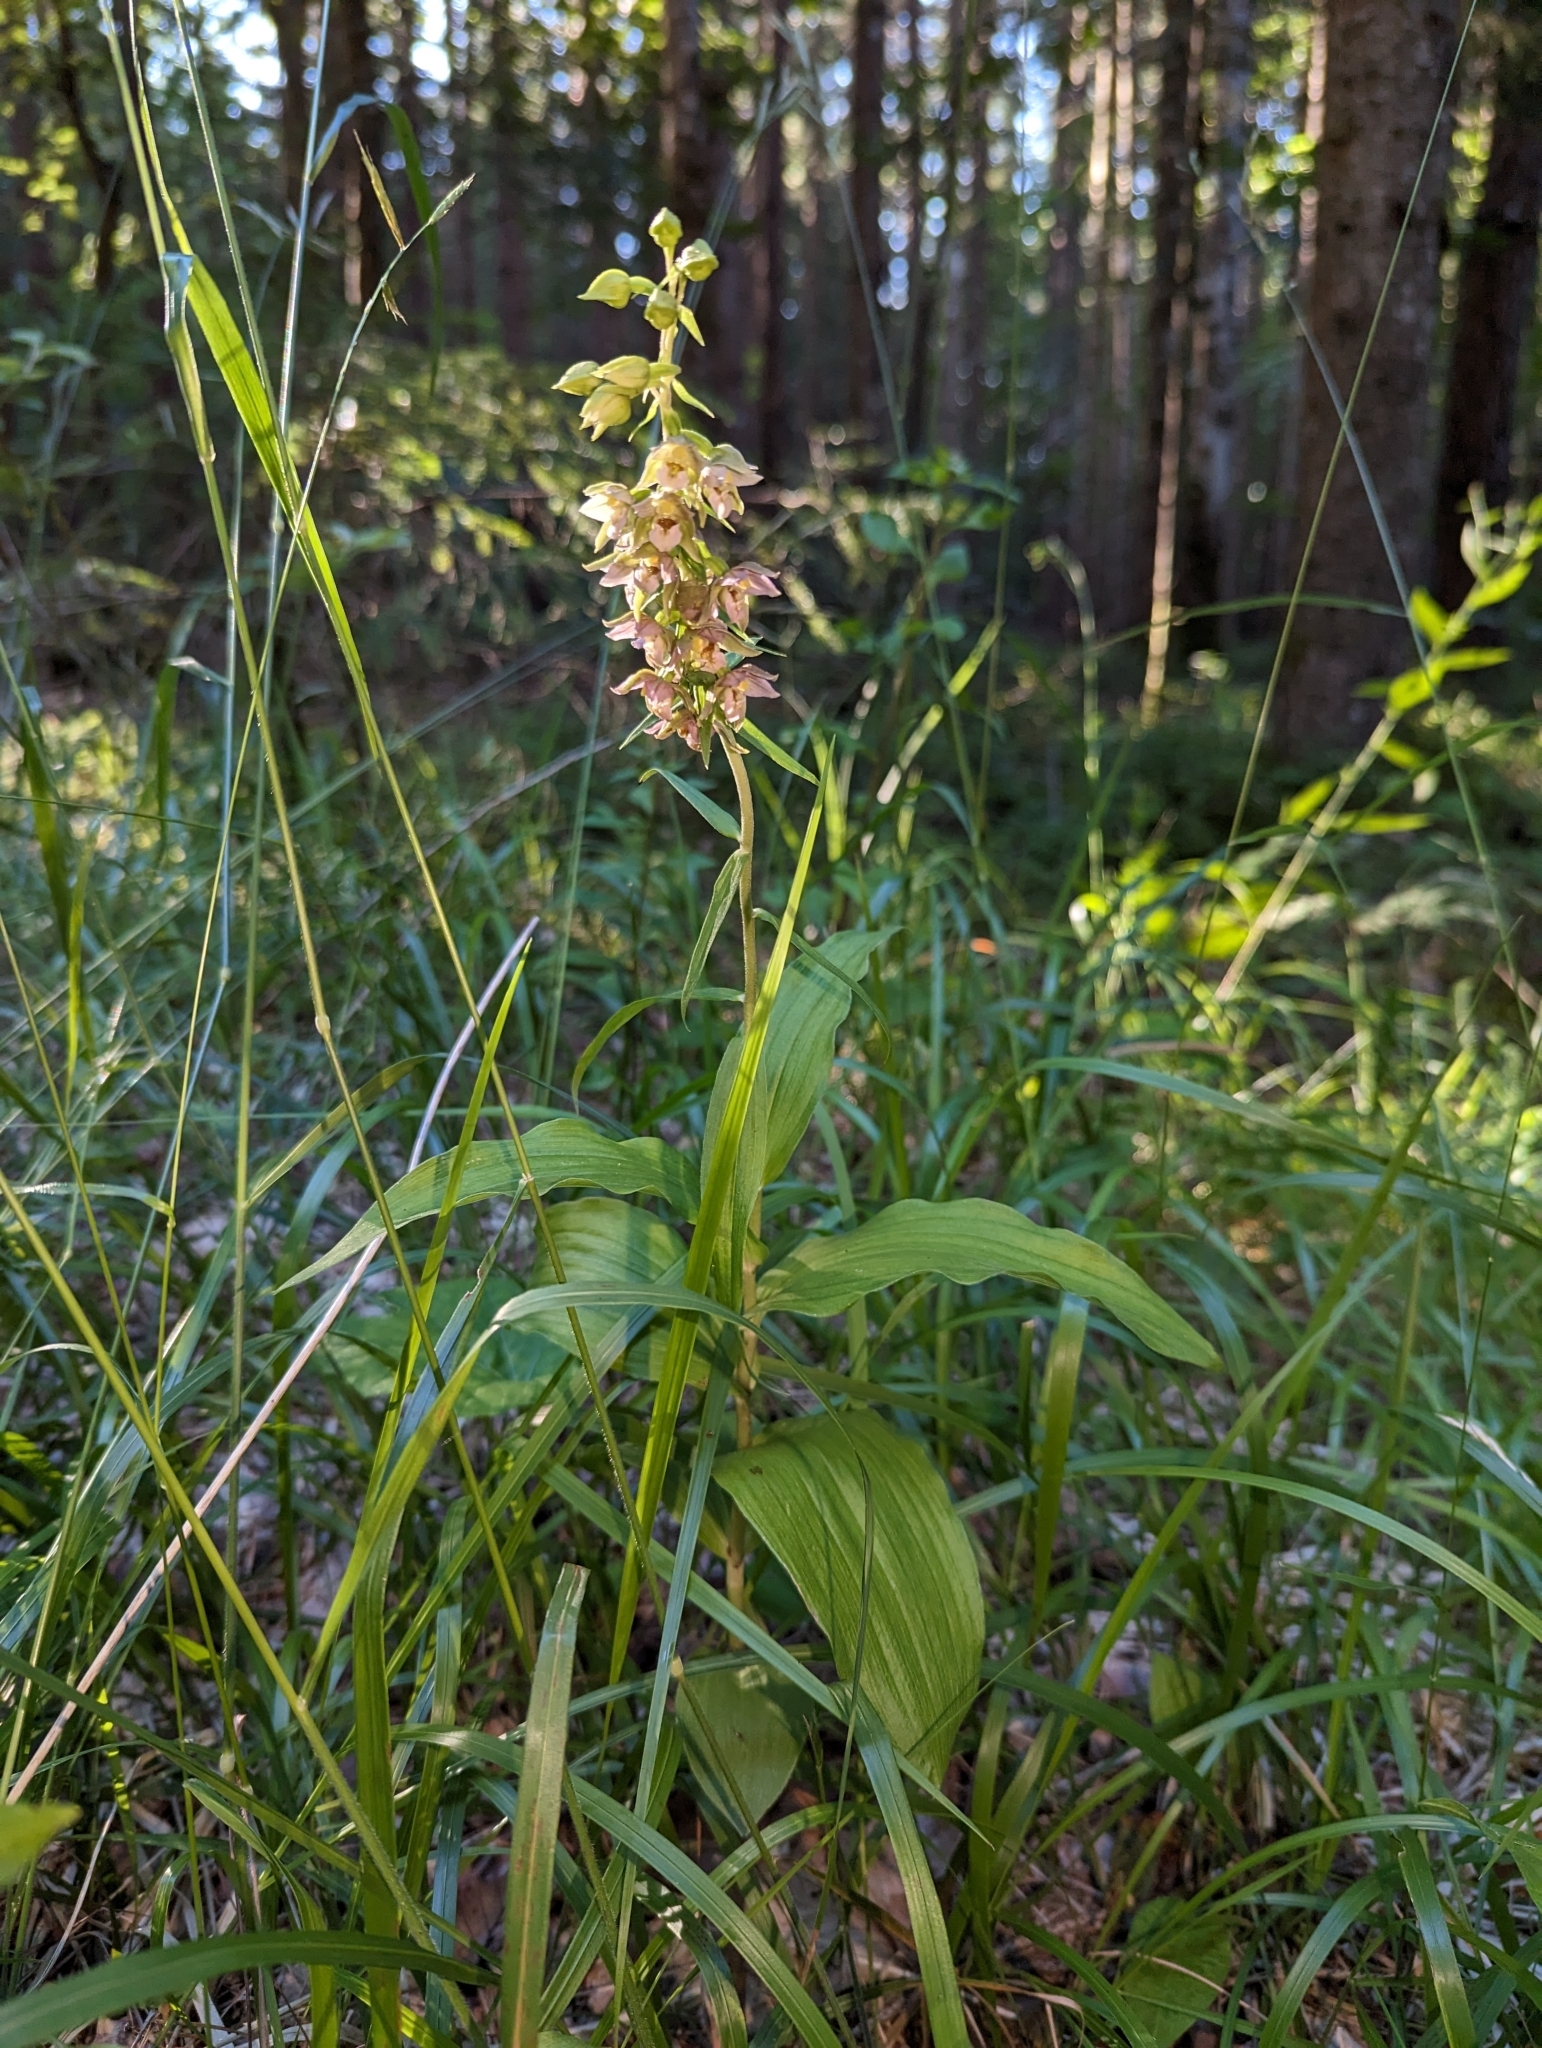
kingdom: Plantae
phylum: Tracheophyta
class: Liliopsida
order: Asparagales
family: Orchidaceae
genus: Epipactis
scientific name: Epipactis helleborine
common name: Broad-leaved helleborine
